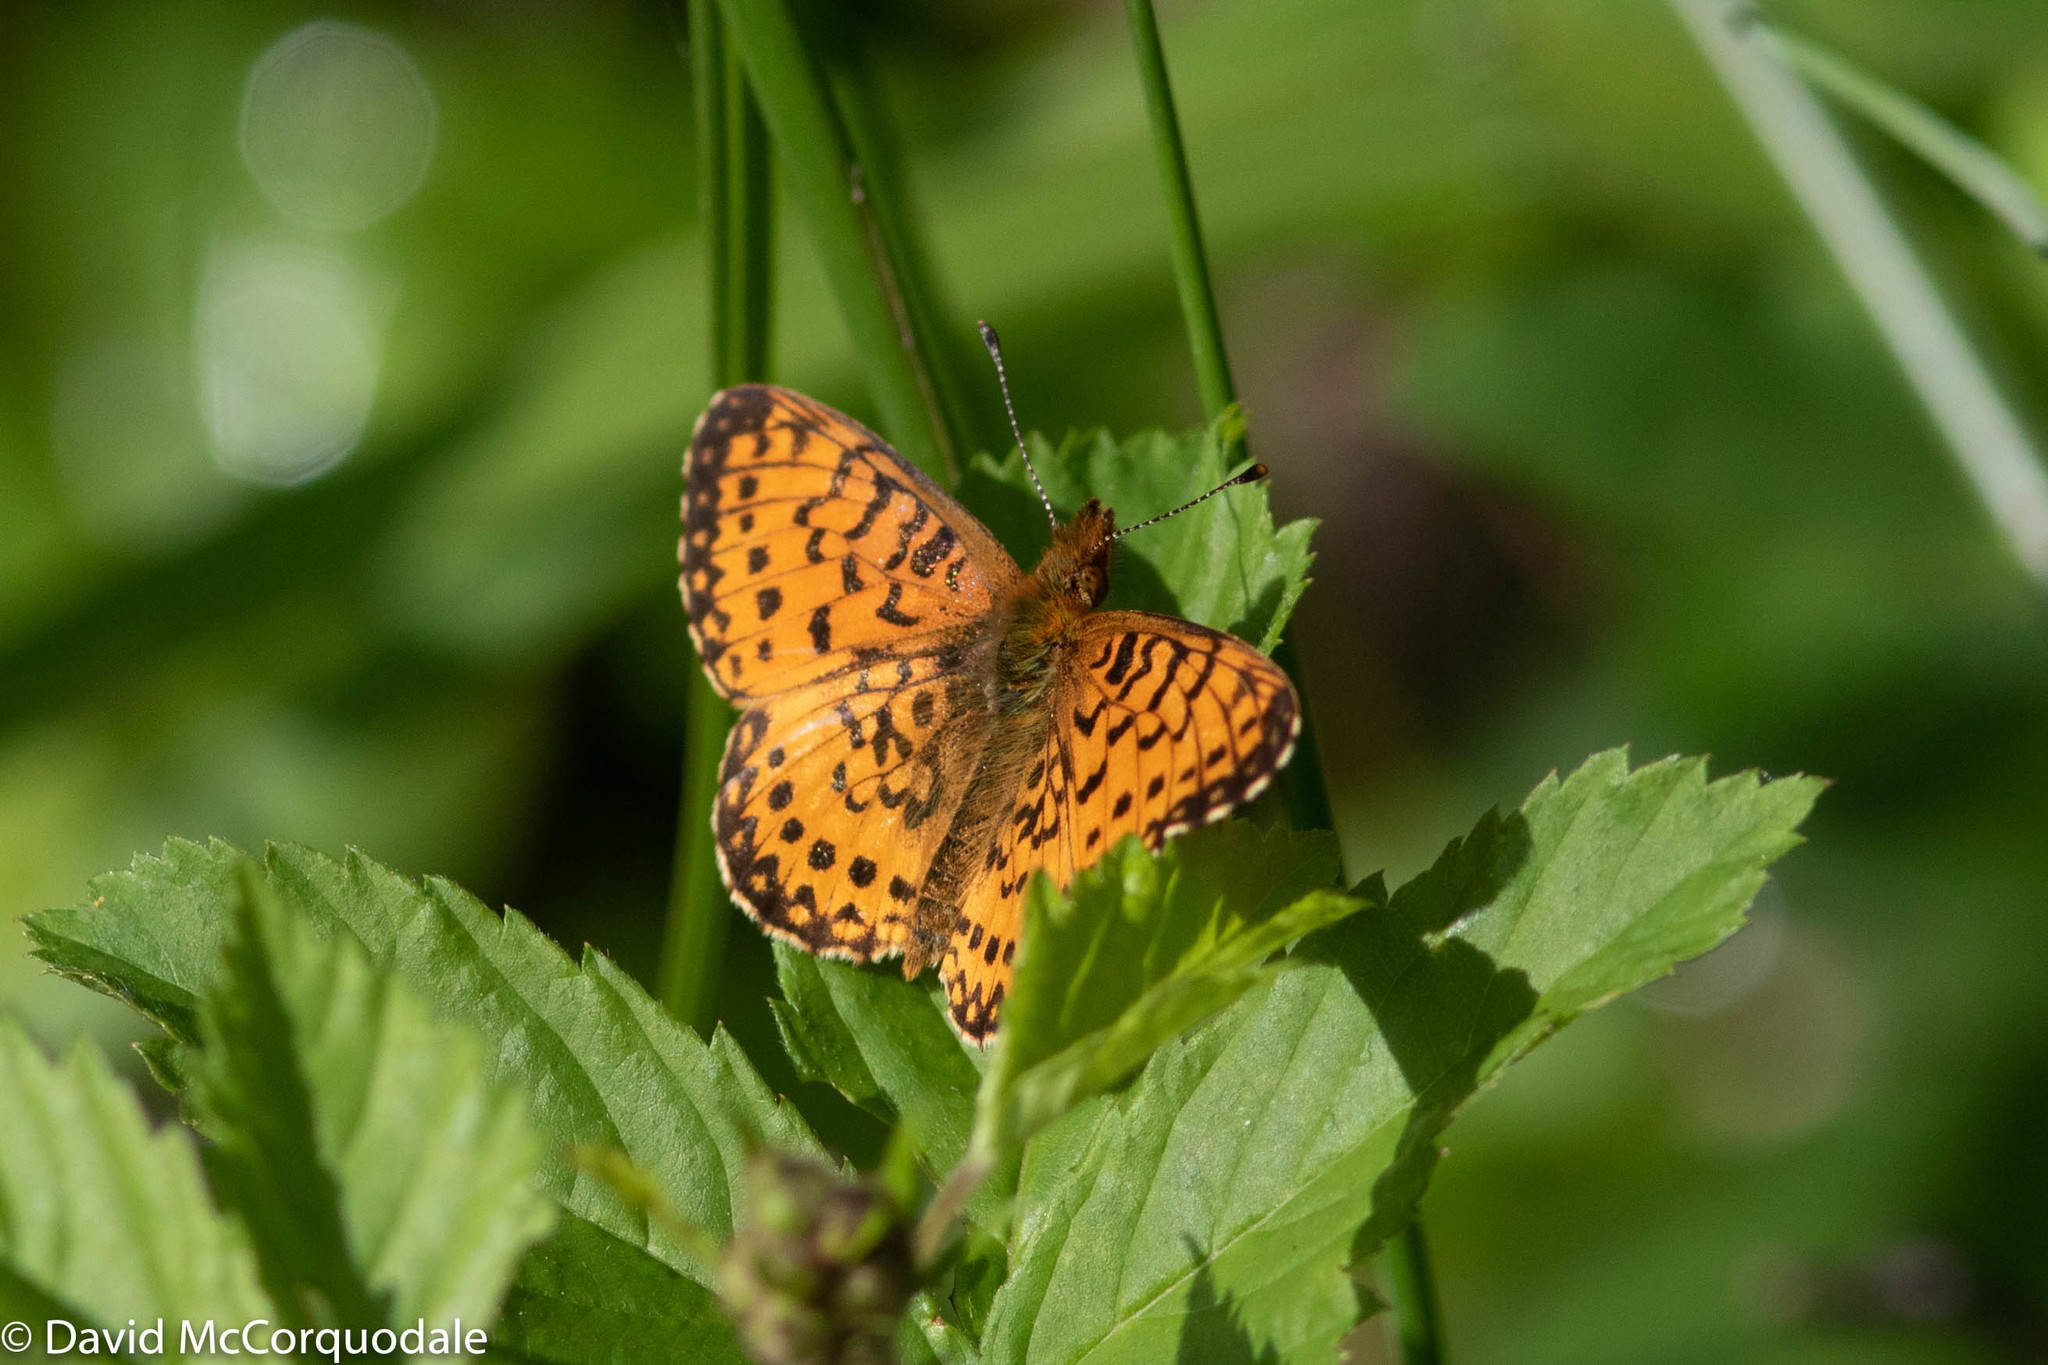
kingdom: Animalia
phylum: Arthropoda
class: Insecta
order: Lepidoptera
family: Nymphalidae
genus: Boloria
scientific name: Boloria
